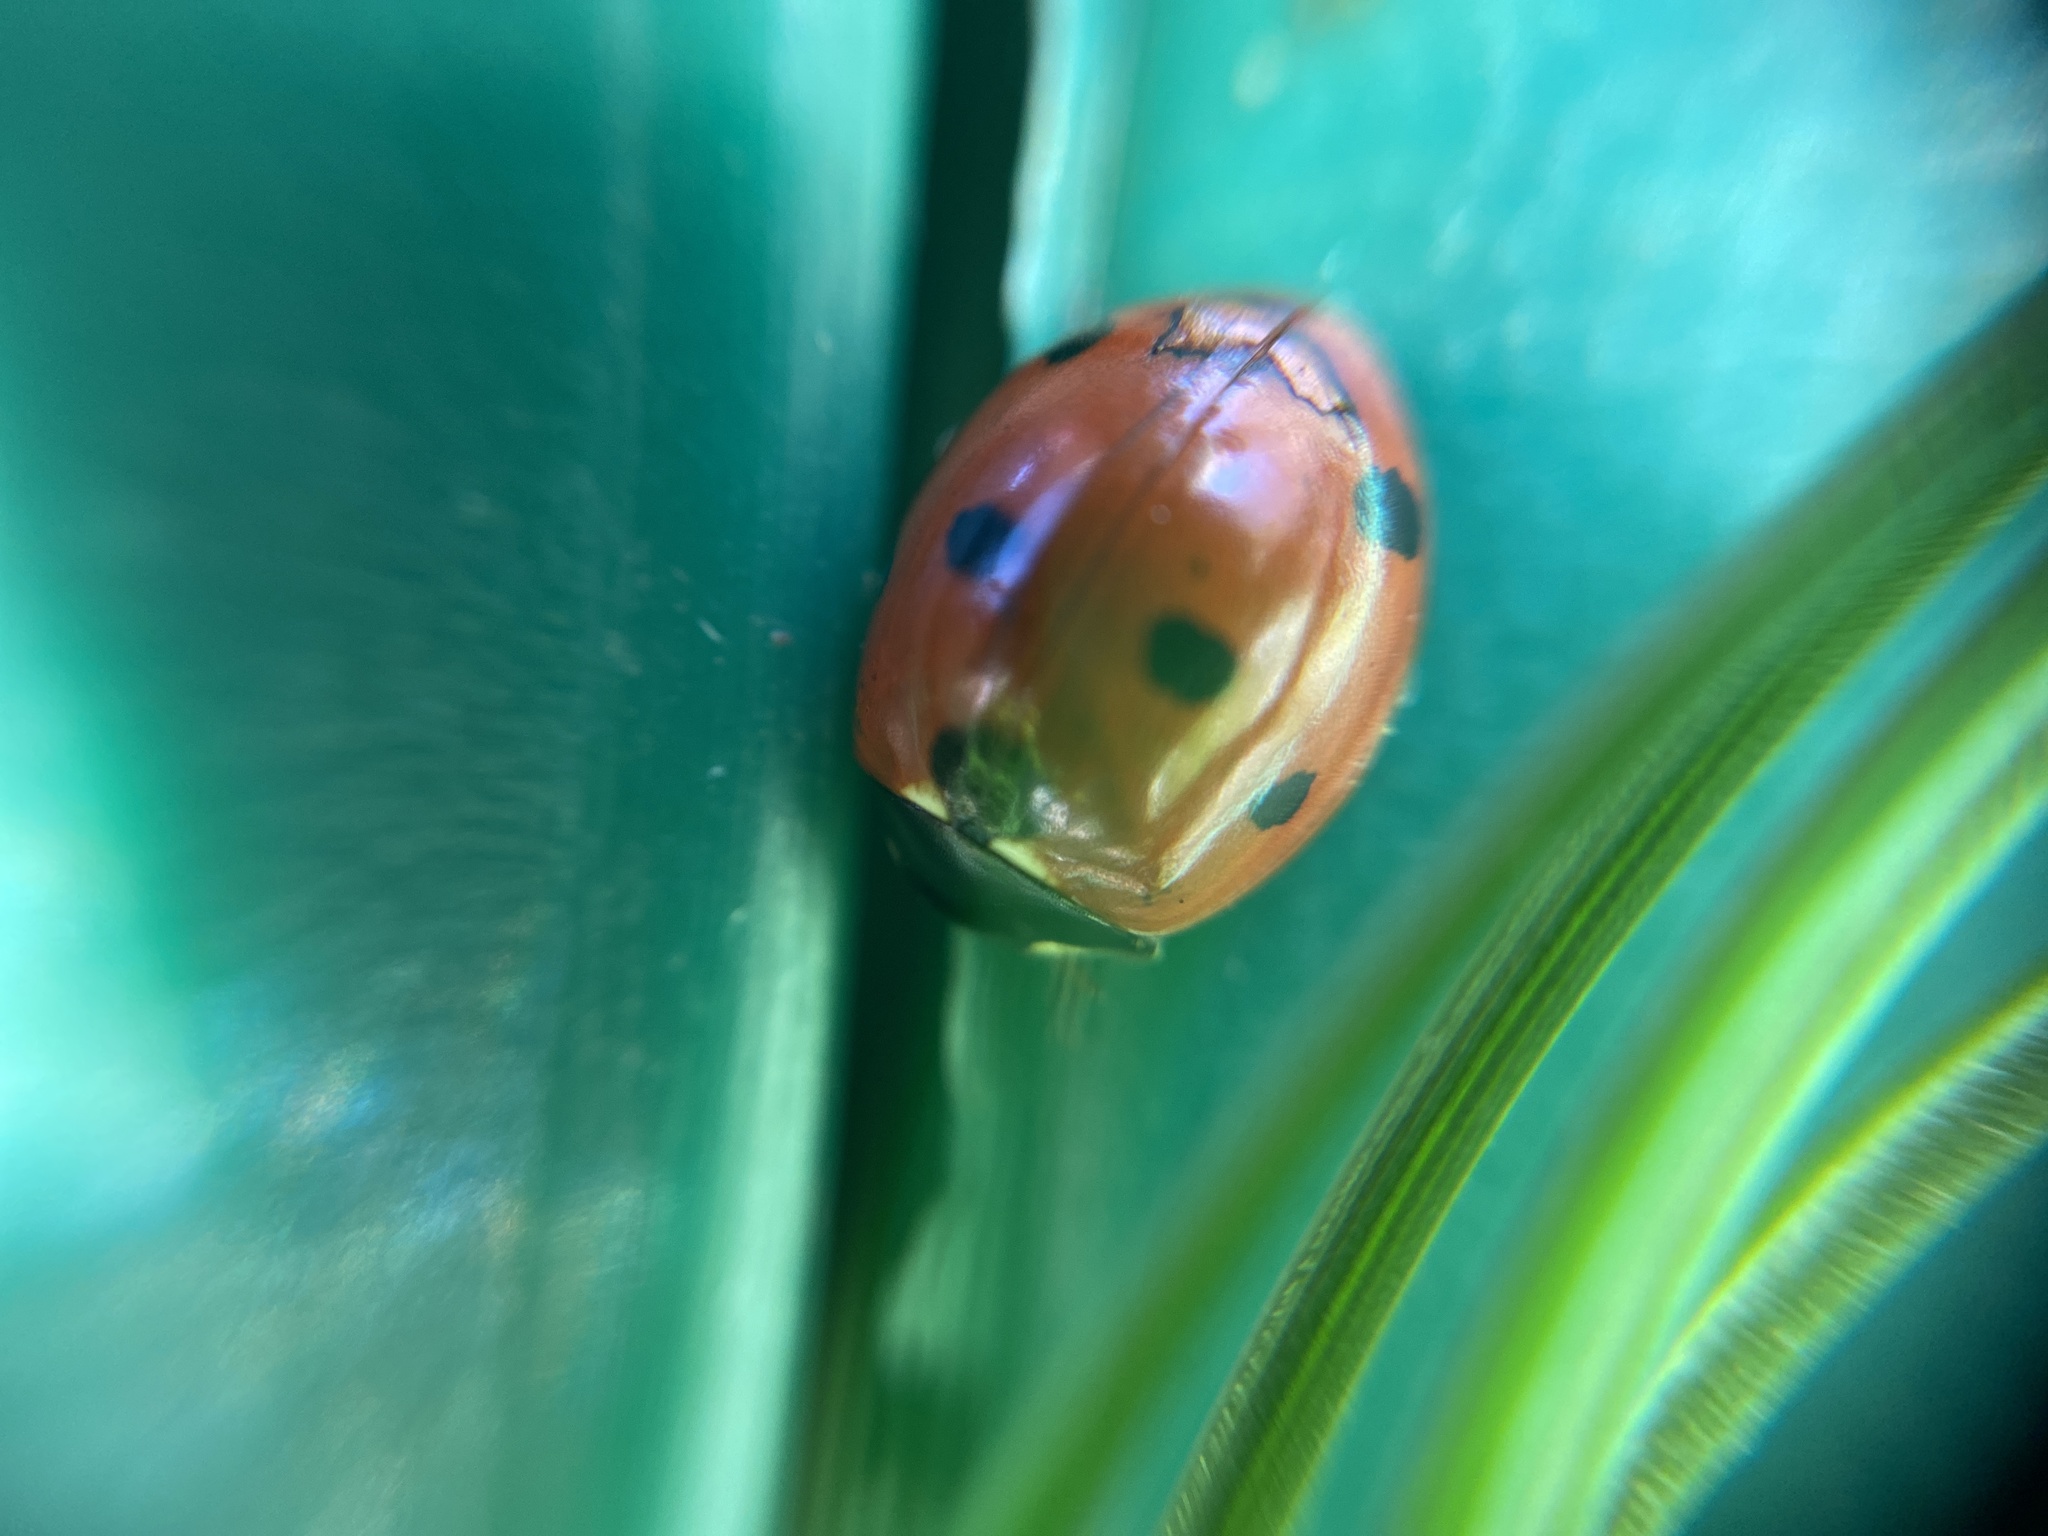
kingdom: Animalia
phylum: Arthropoda
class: Insecta
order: Coleoptera
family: Coccinellidae
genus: Coccinella
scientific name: Coccinella septempunctata
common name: Sevenspotted lady beetle
